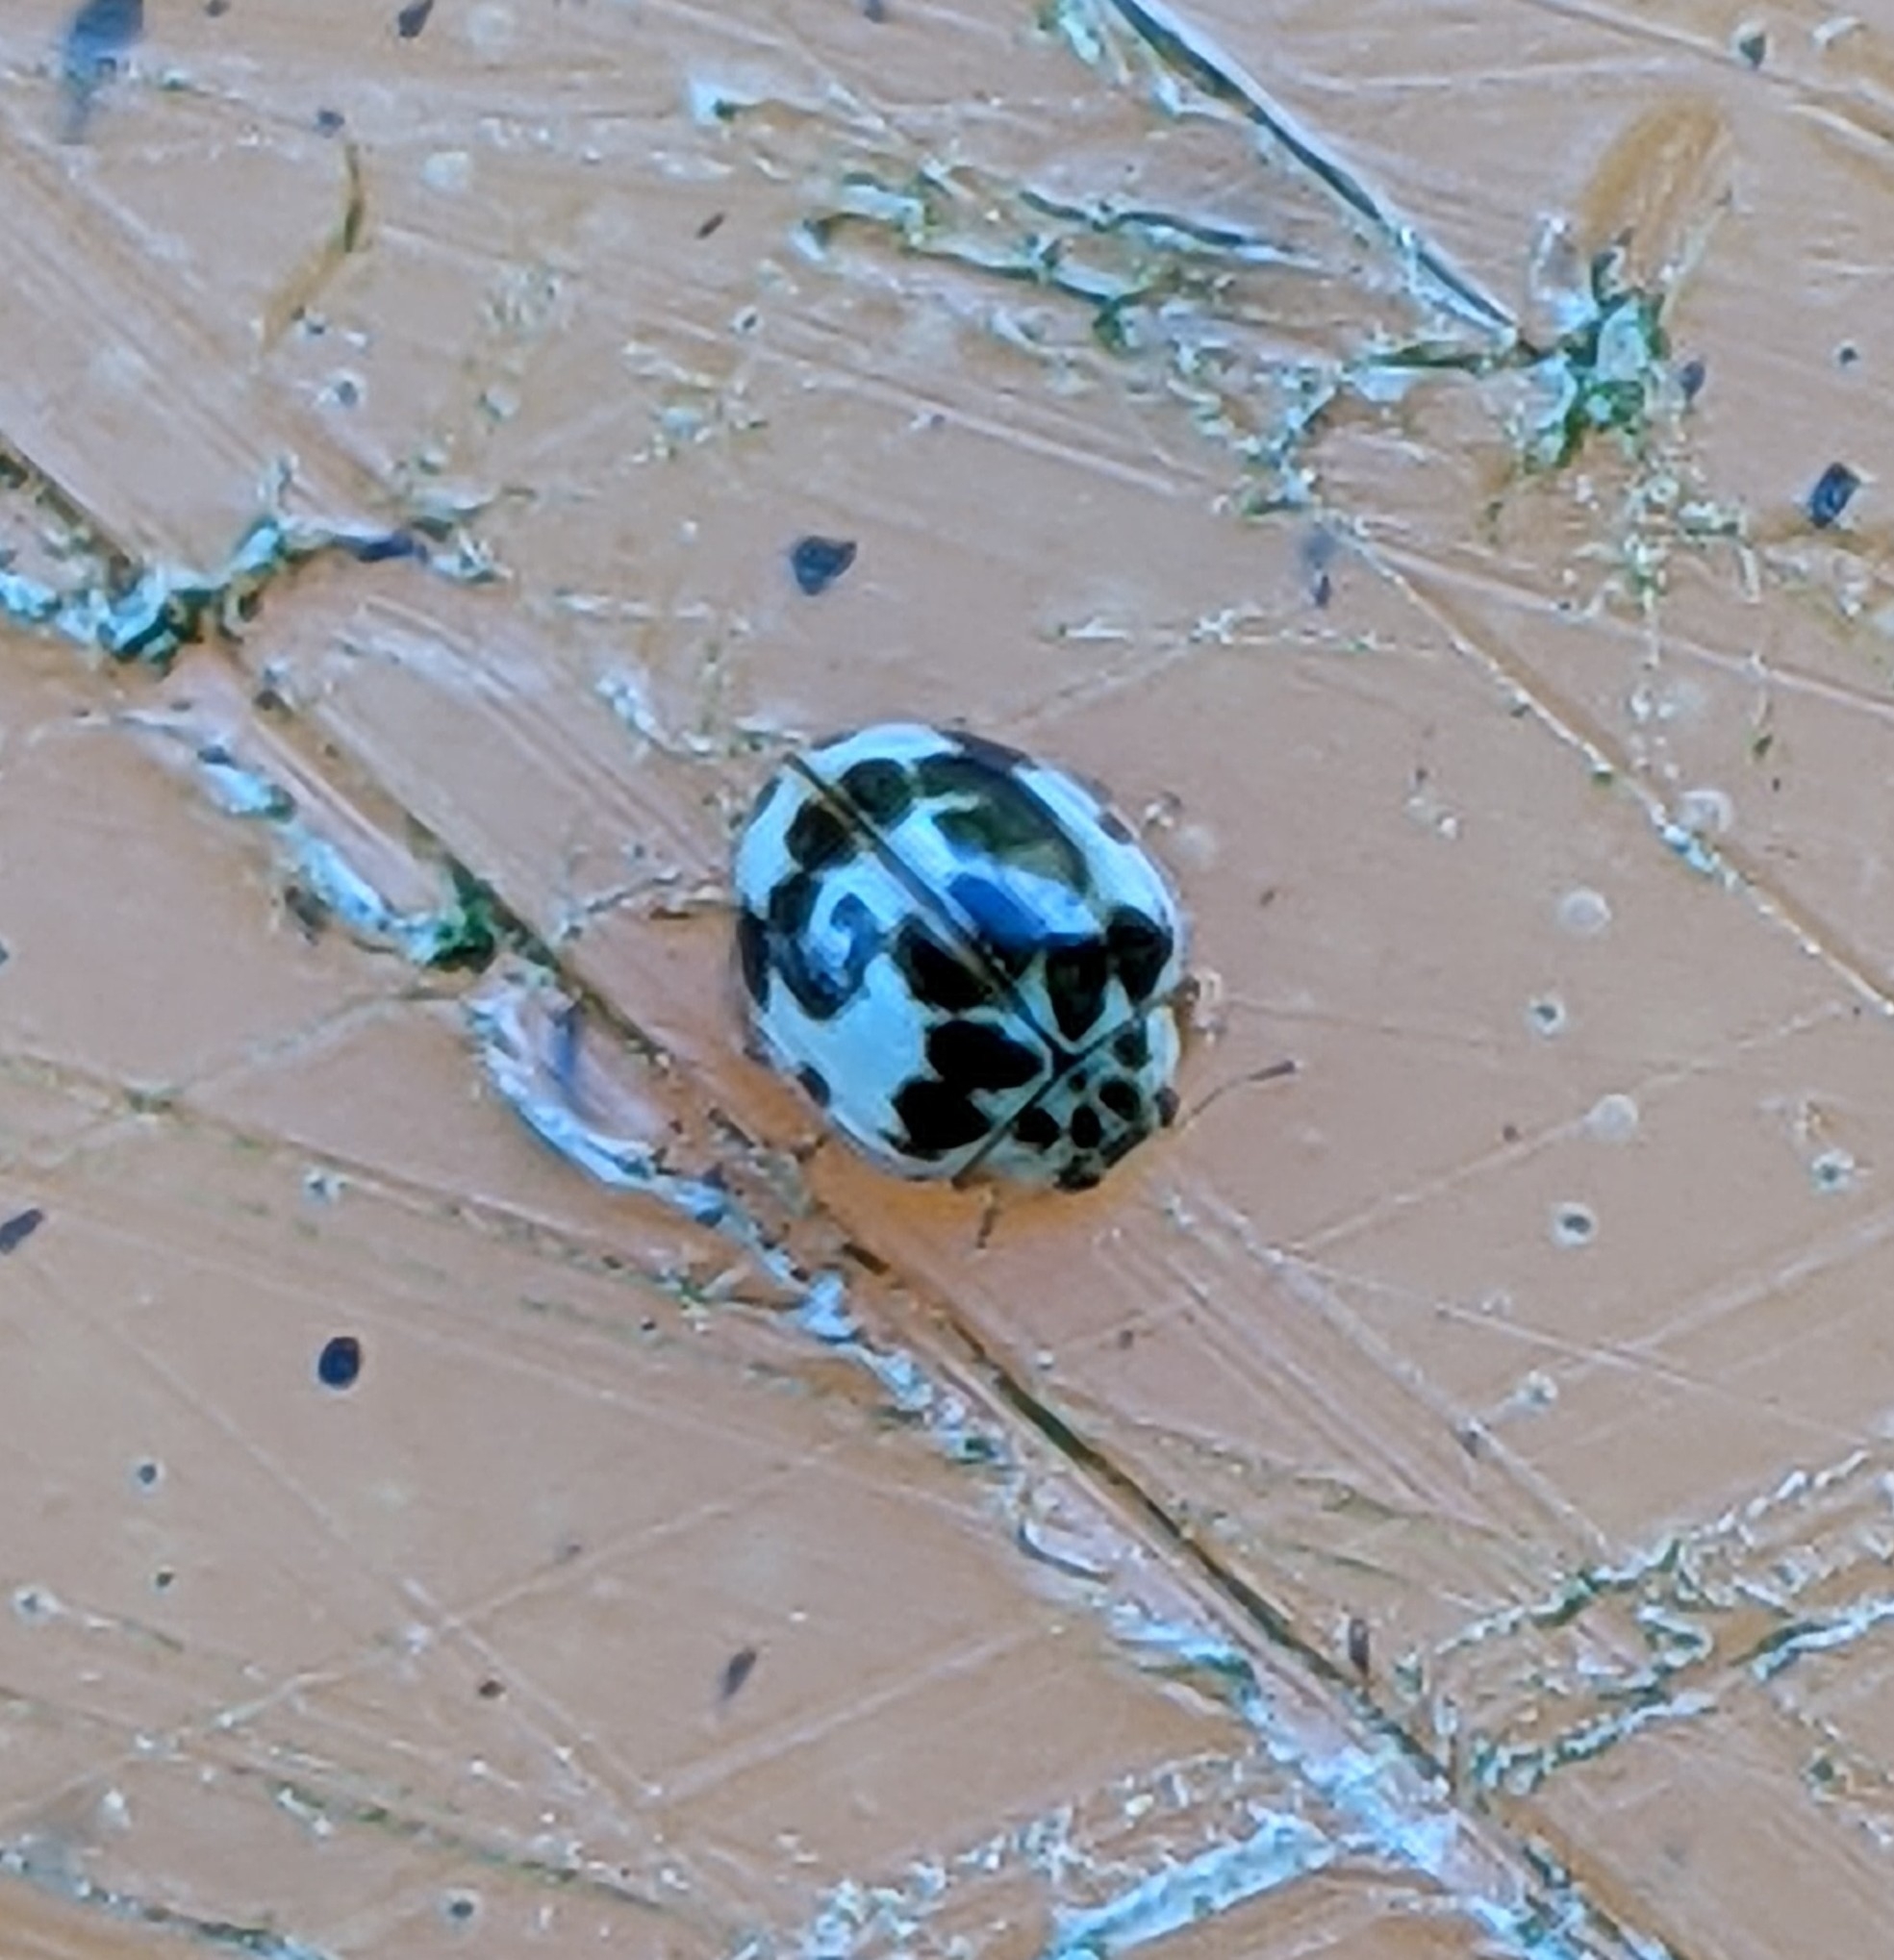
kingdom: Animalia
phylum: Arthropoda
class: Insecta
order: Coleoptera
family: Coccinellidae
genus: Psyllobora
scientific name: Psyllobora borealis
